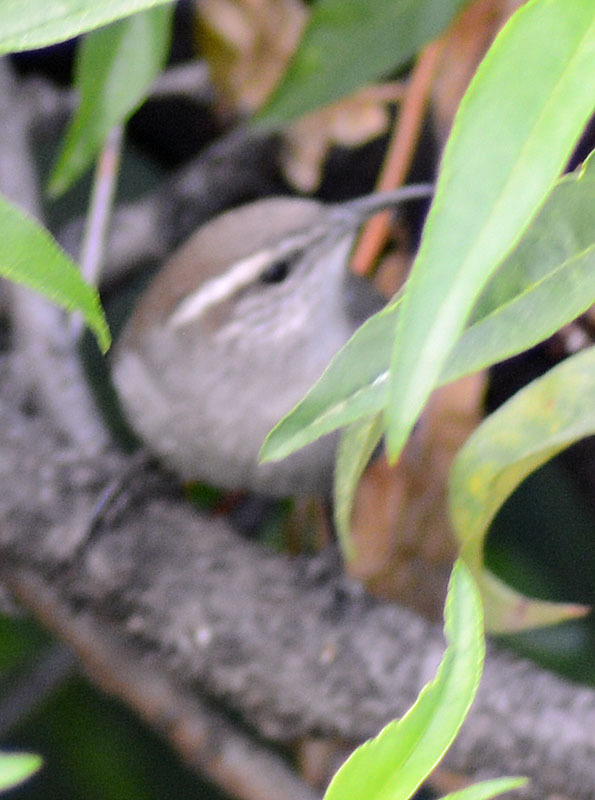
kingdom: Animalia
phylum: Chordata
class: Aves
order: Passeriformes
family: Troglodytidae
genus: Thryomanes
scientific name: Thryomanes bewickii
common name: Bewick's wren
